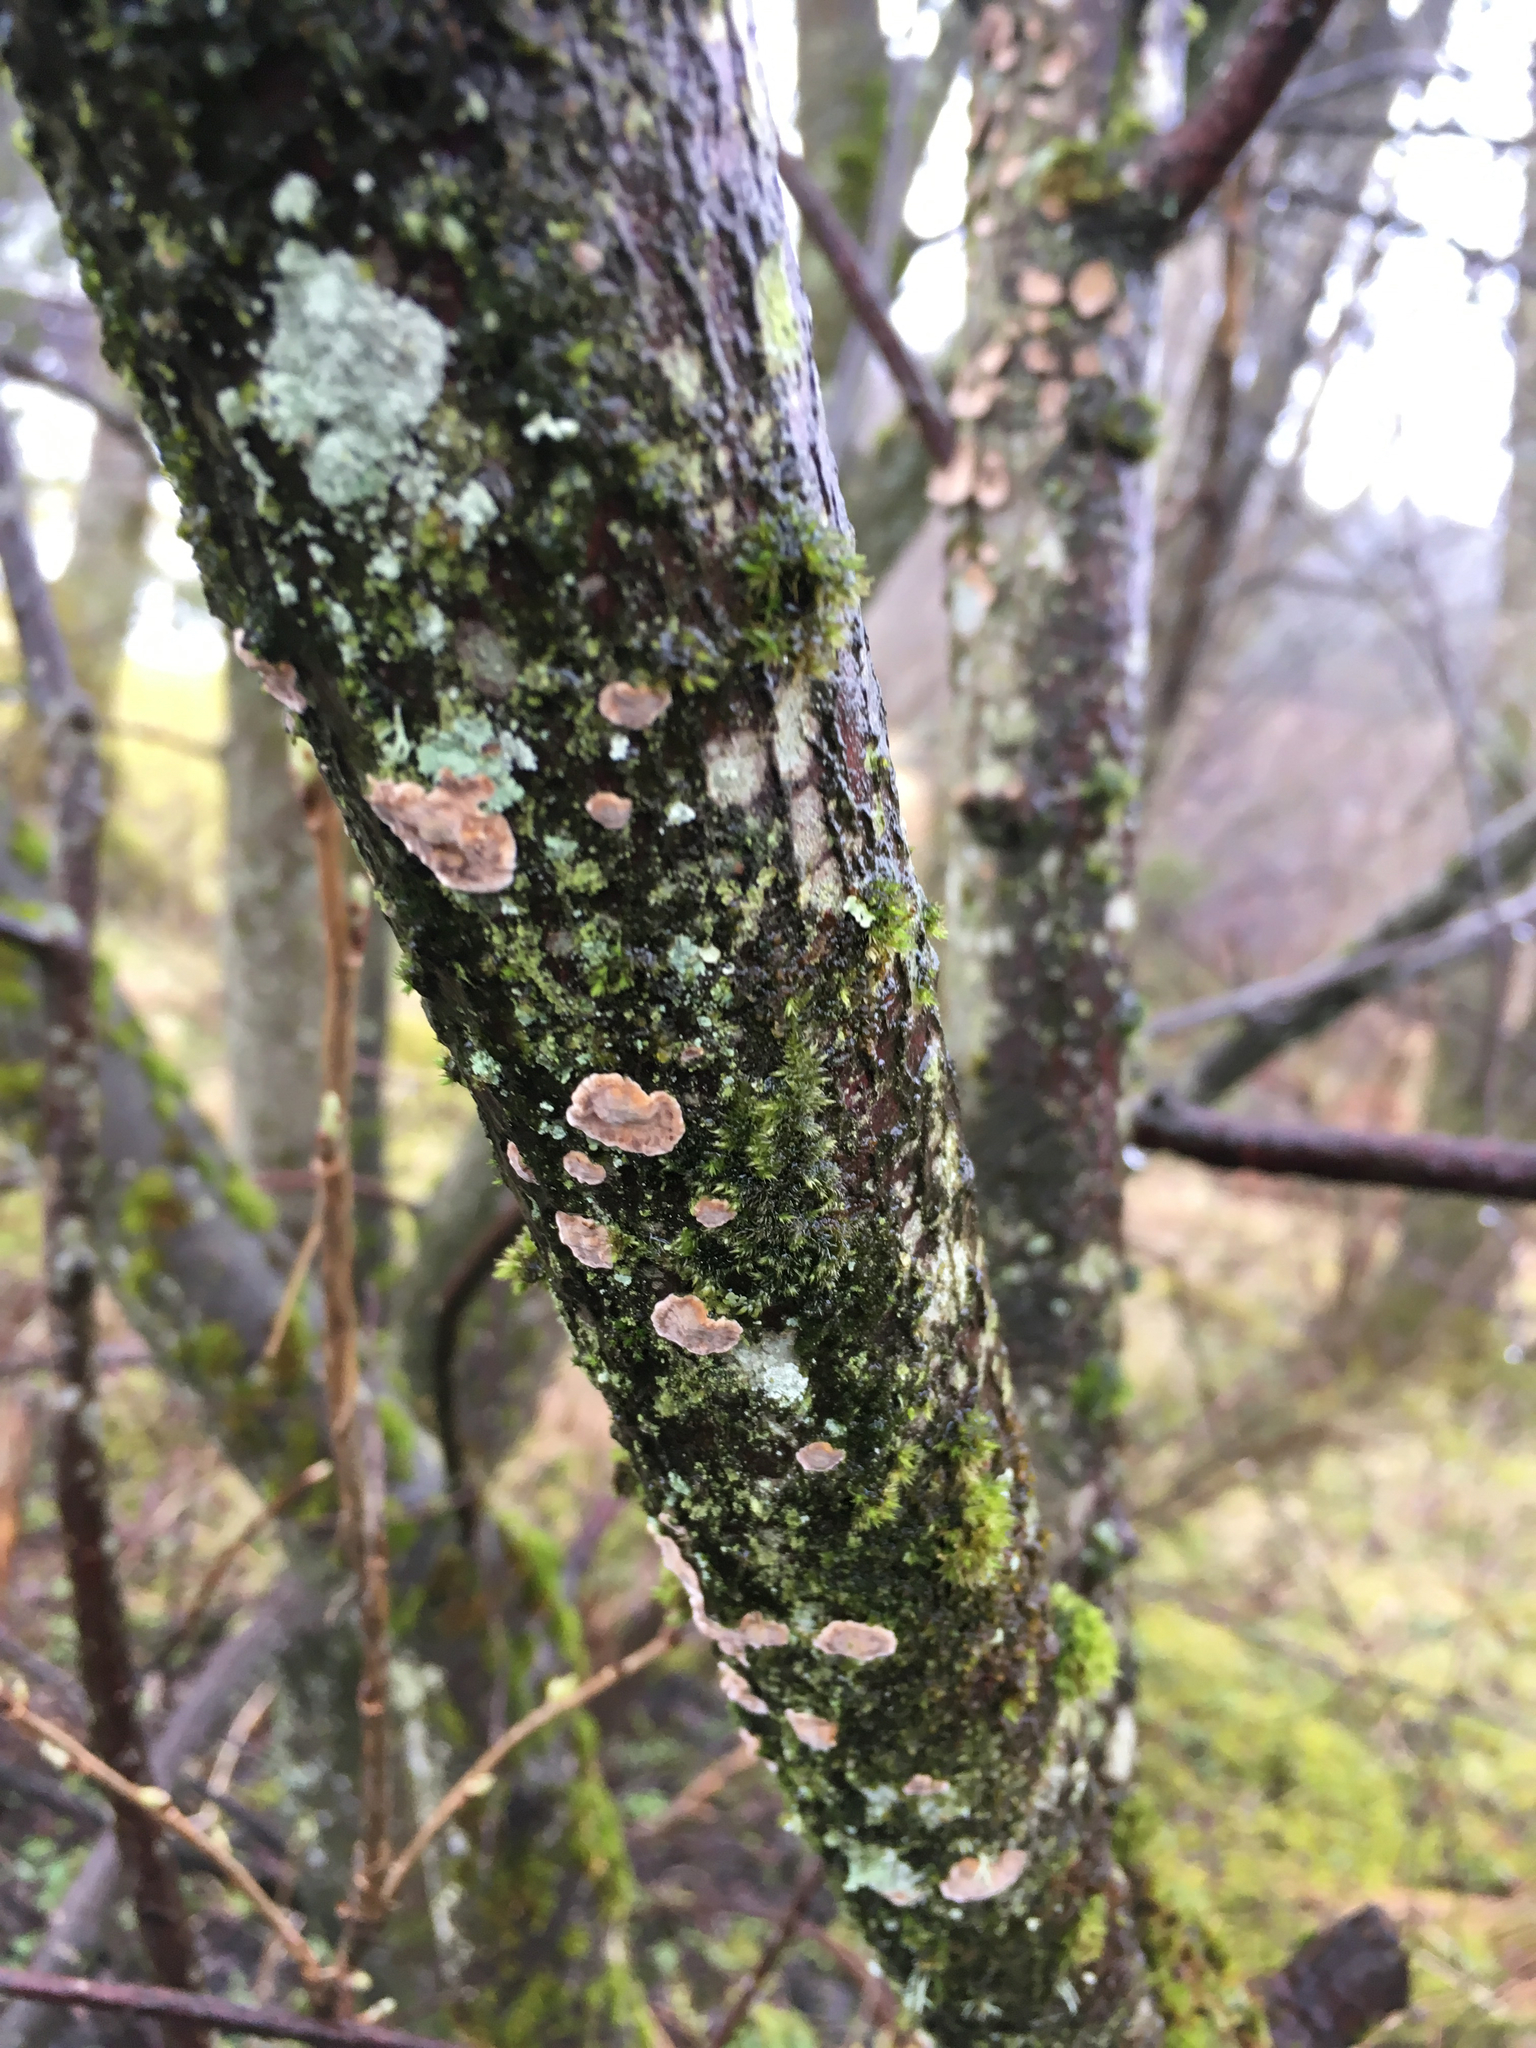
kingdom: Fungi
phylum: Basidiomycota
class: Agaricomycetes
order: Russulales
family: Stereaceae
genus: Stereum
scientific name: Stereum rugosum
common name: Bleeding broadleaf crust
